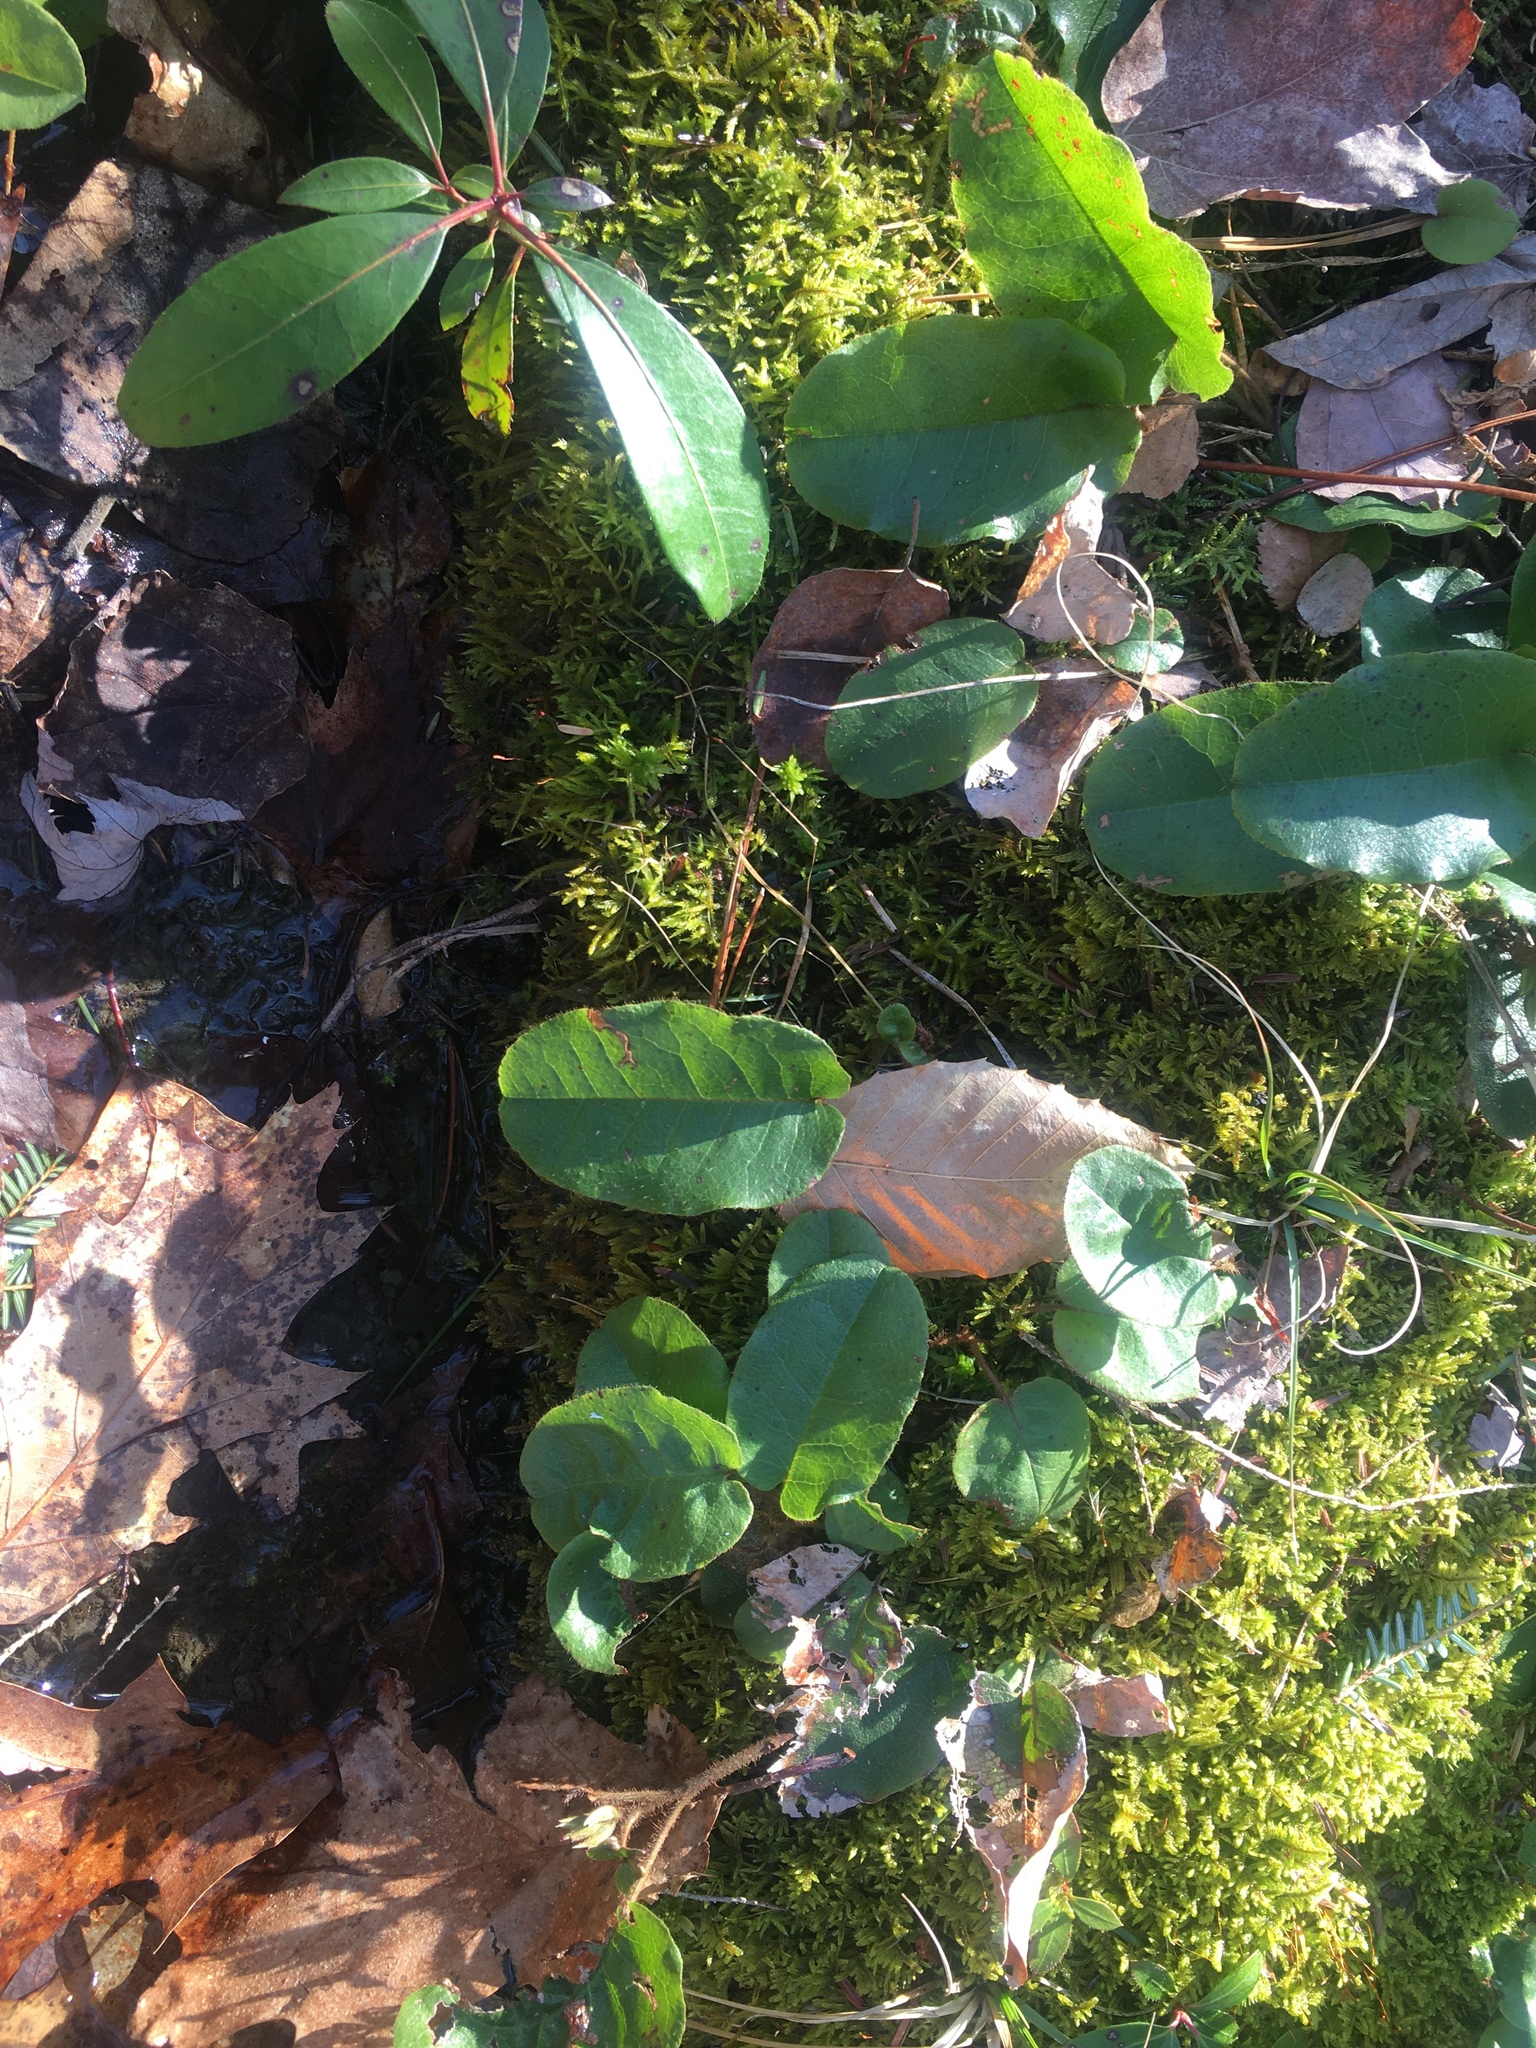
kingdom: Plantae
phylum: Tracheophyta
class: Magnoliopsida
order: Ericales
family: Ericaceae
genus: Epigaea
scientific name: Epigaea repens
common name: Gravelroot
